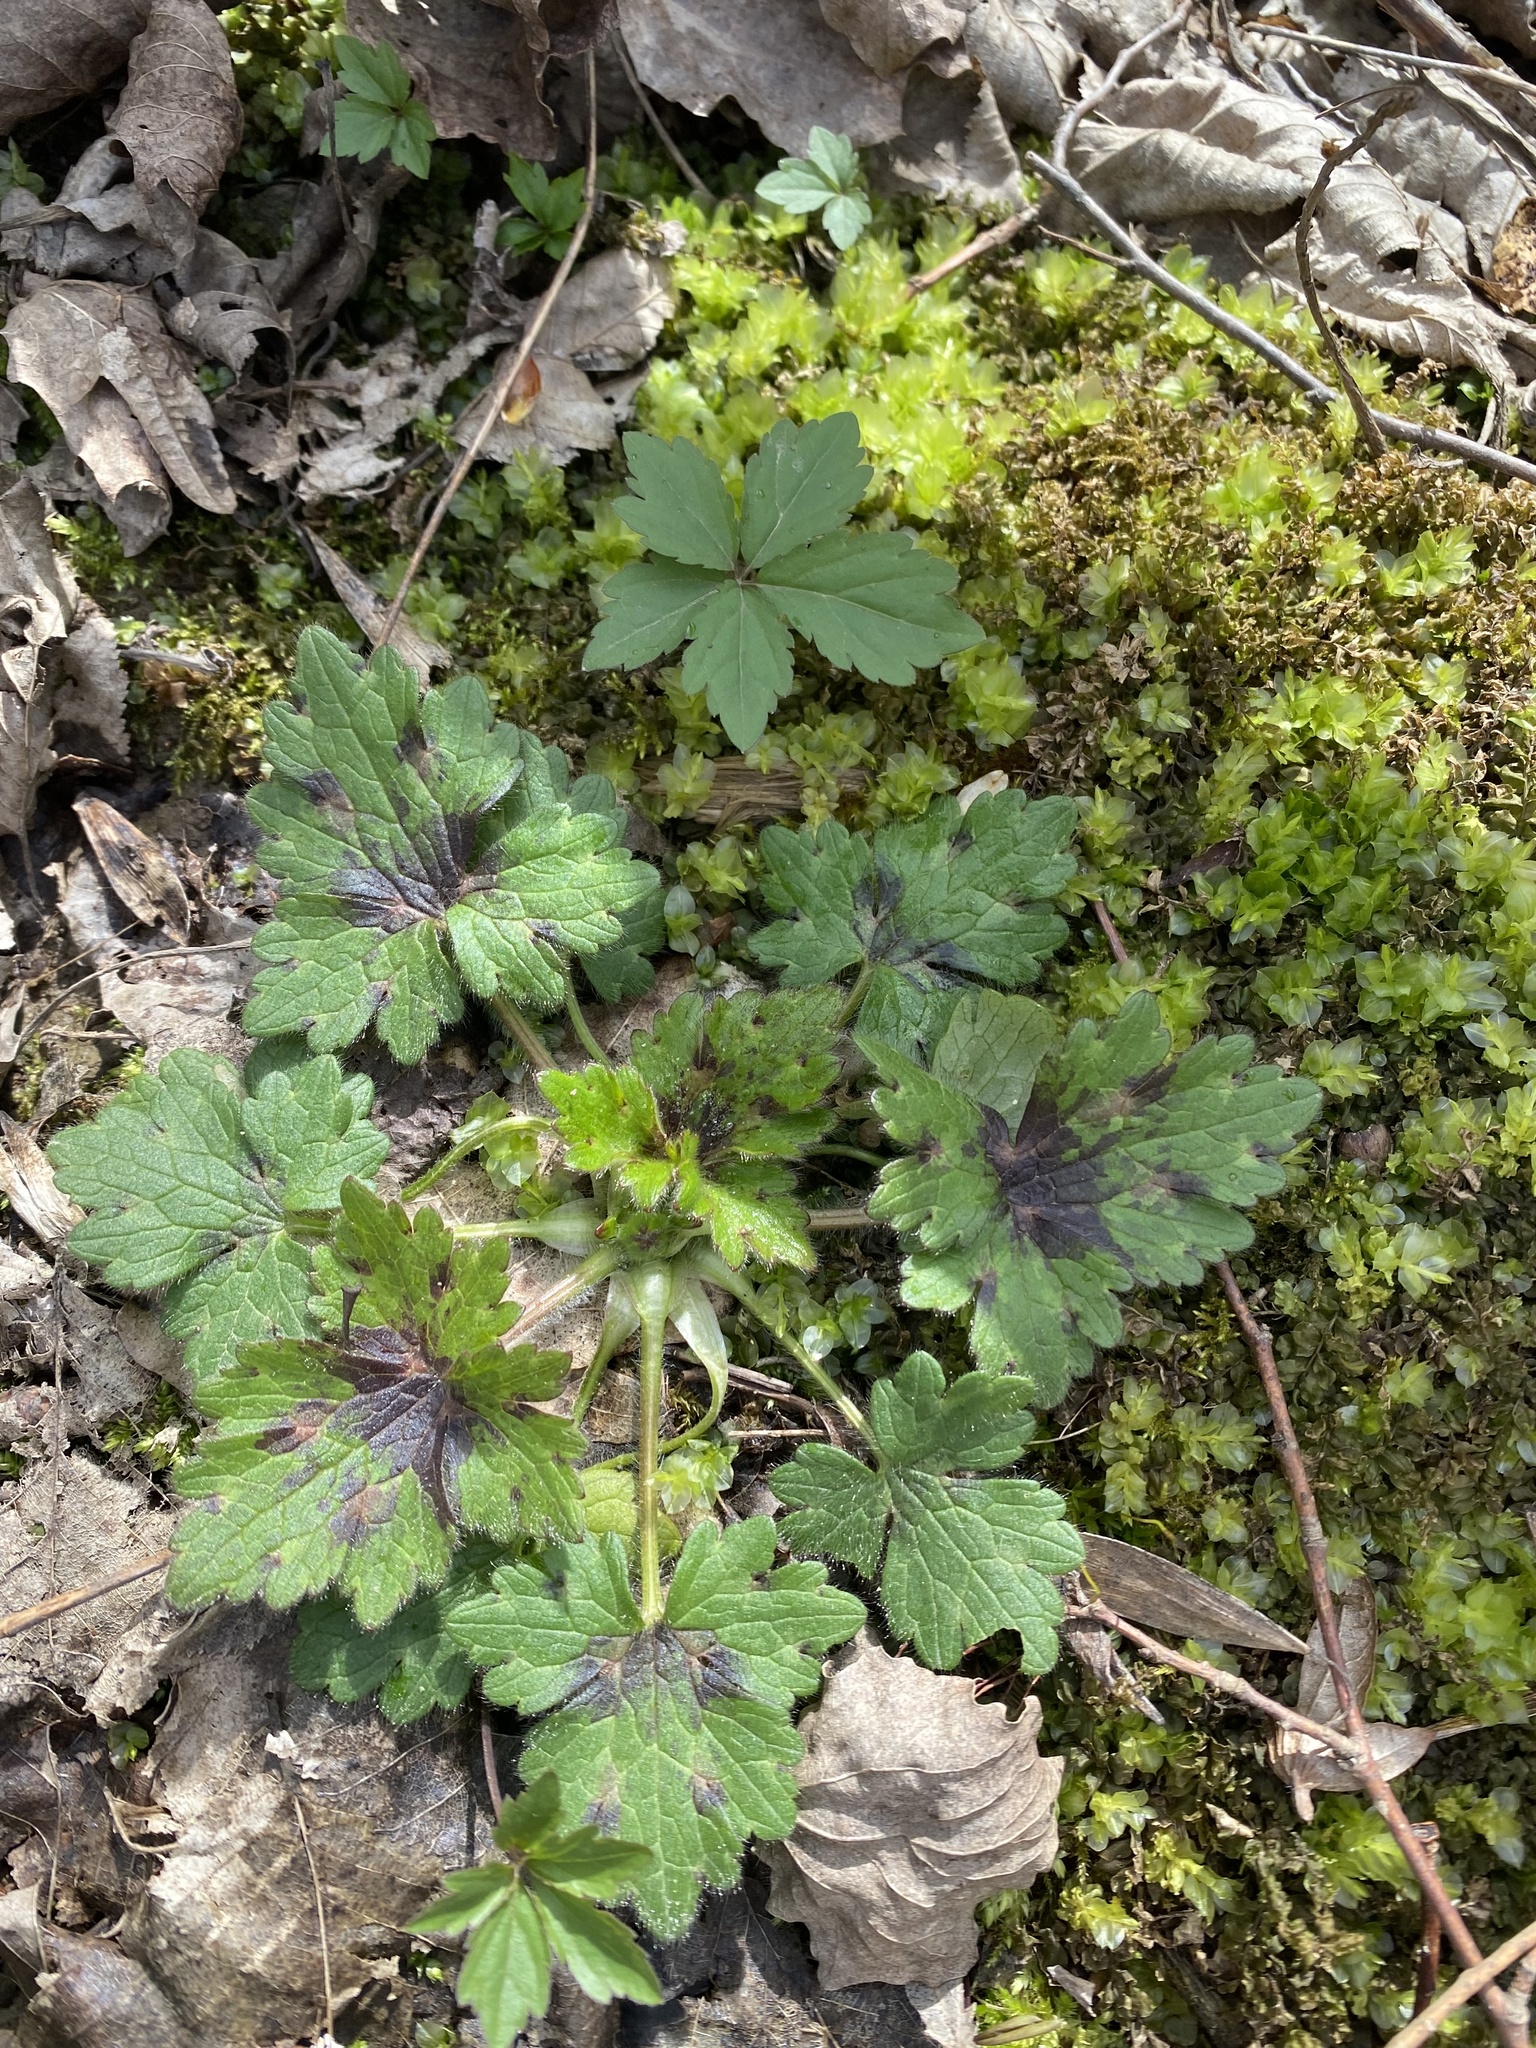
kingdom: Plantae
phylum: Tracheophyta
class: Magnoliopsida
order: Ranunculales
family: Ranunculaceae
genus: Ranunculus
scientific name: Ranunculus constantinopolitanus
